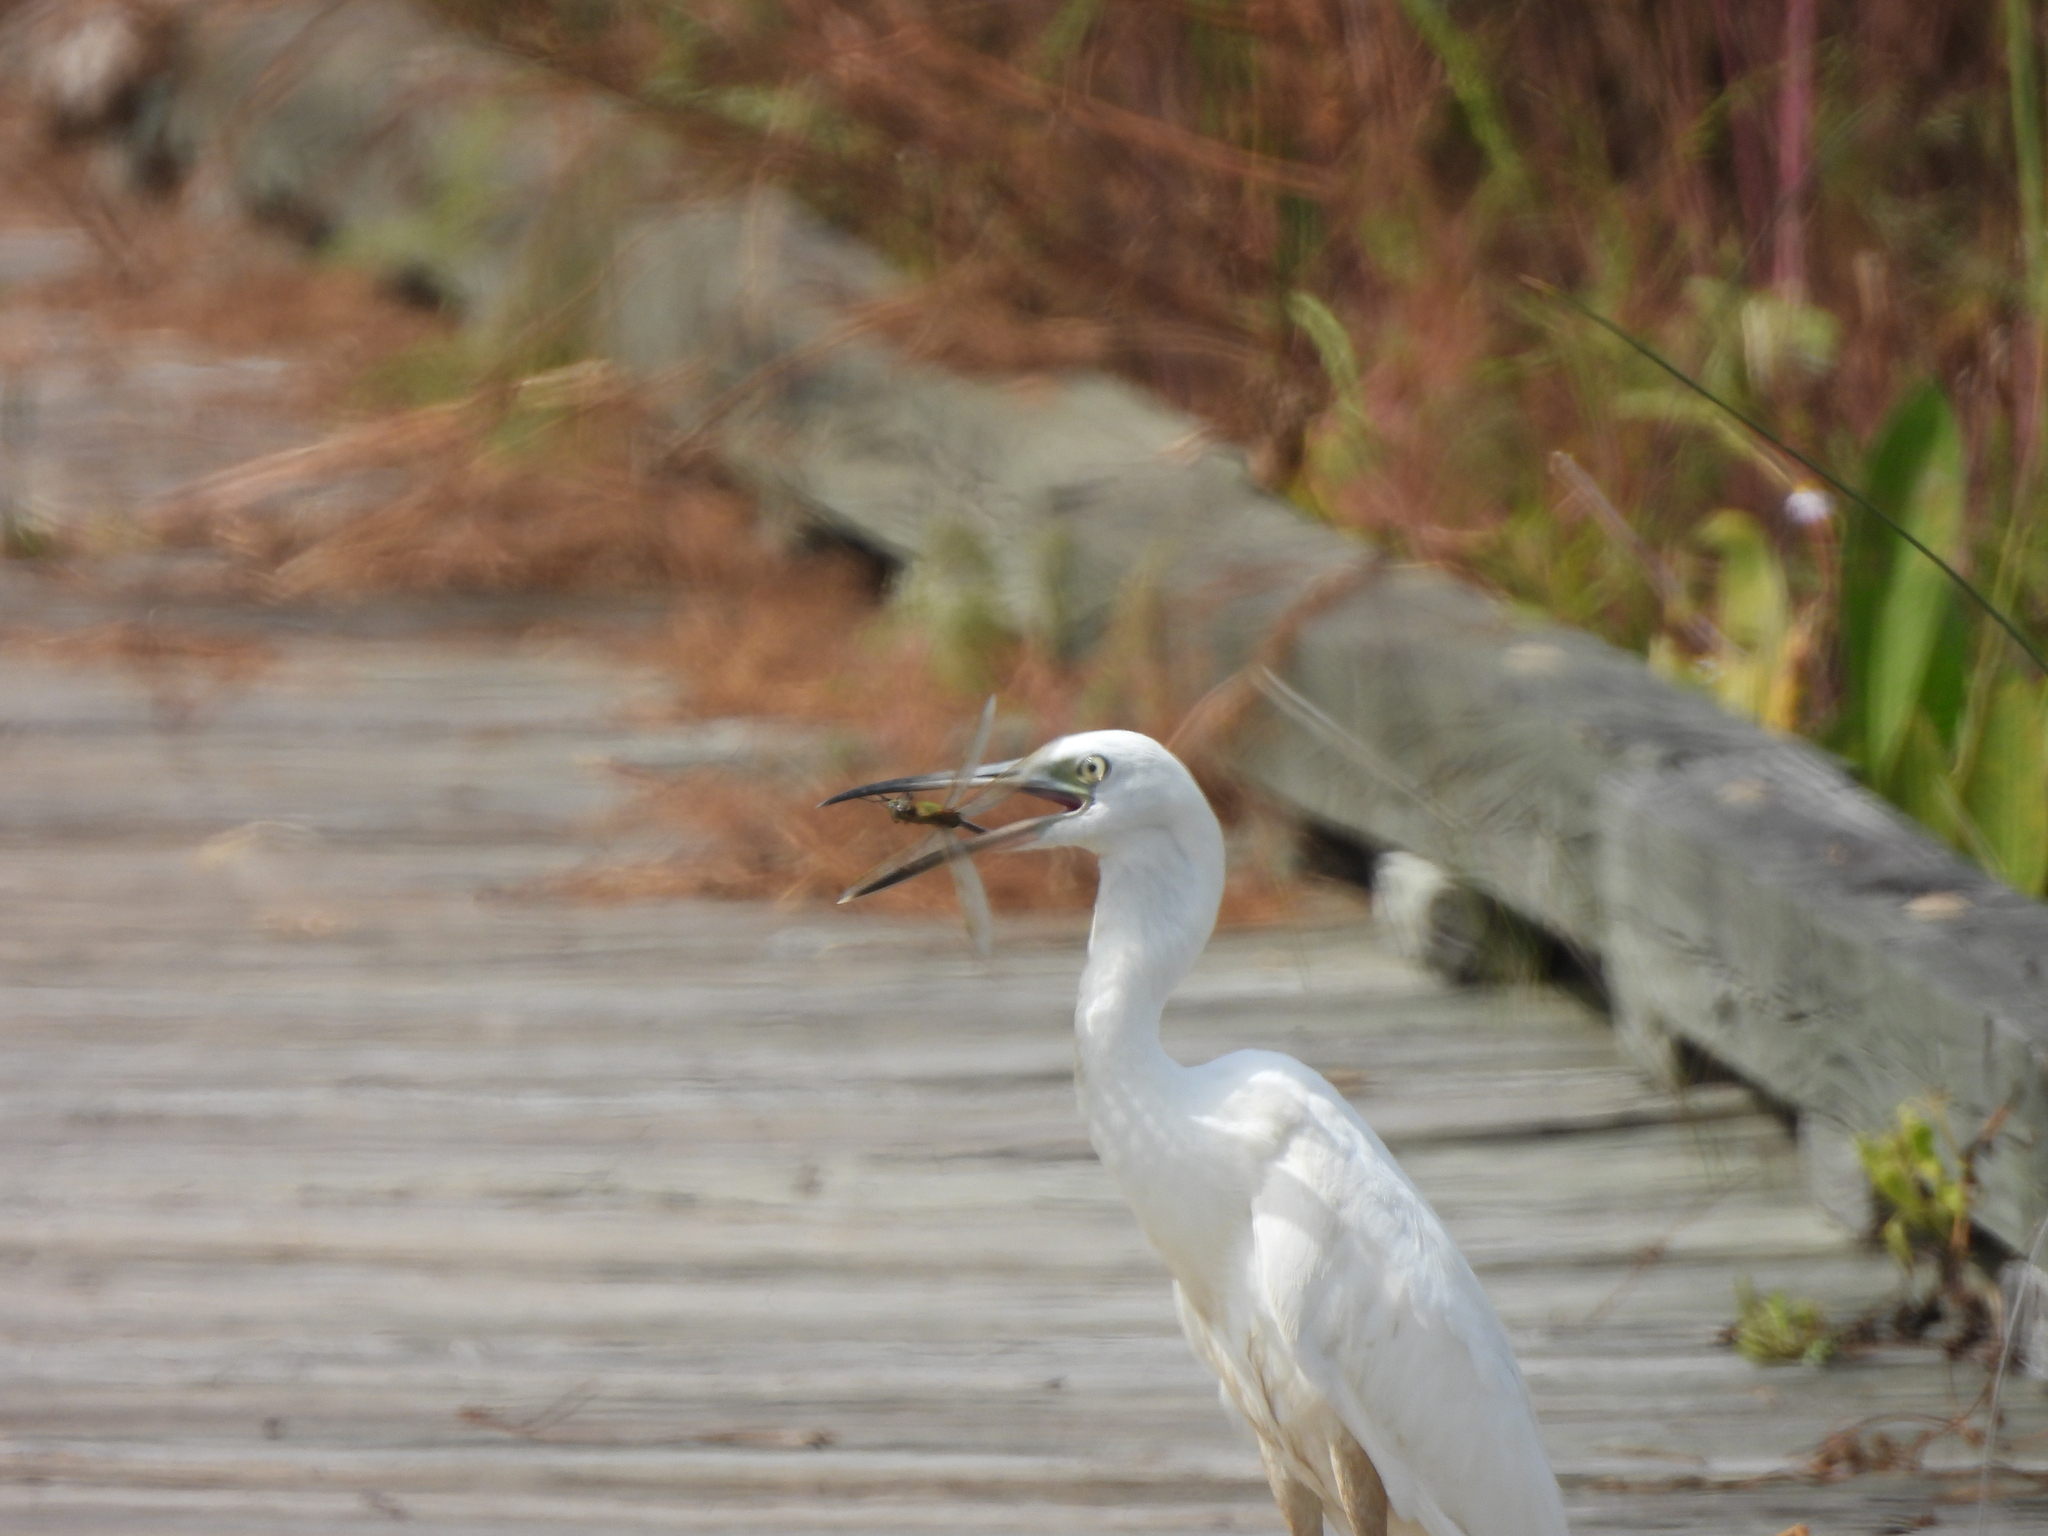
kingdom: Animalia
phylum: Arthropoda
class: Insecta
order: Odonata
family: Aeshnidae
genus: Anax
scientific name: Anax junius
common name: Common green darner
